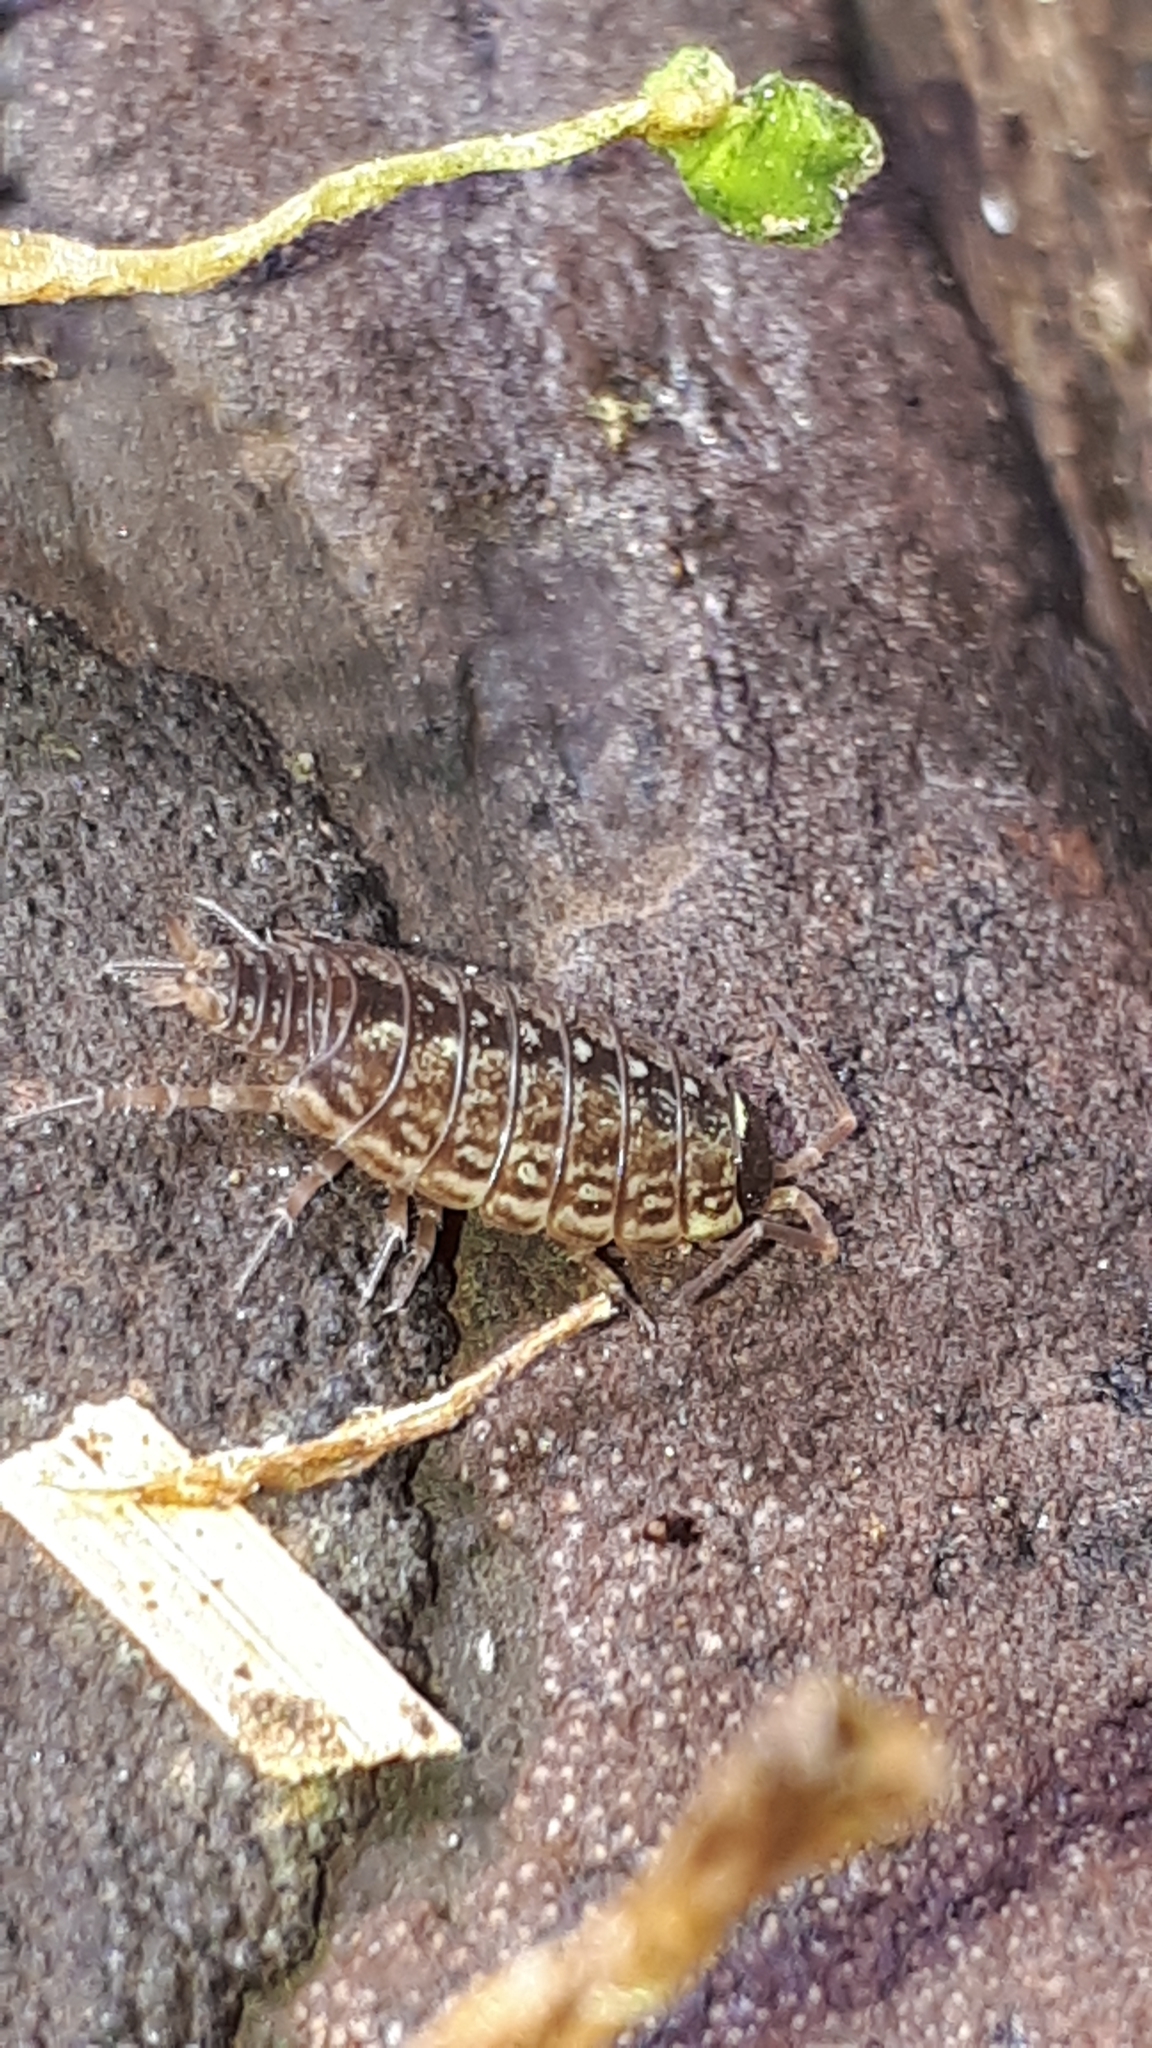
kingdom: Animalia
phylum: Arthropoda
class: Malacostraca
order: Isopoda
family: Philosciidae
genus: Philoscia
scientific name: Philoscia muscorum
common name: Common striped woodlouse
